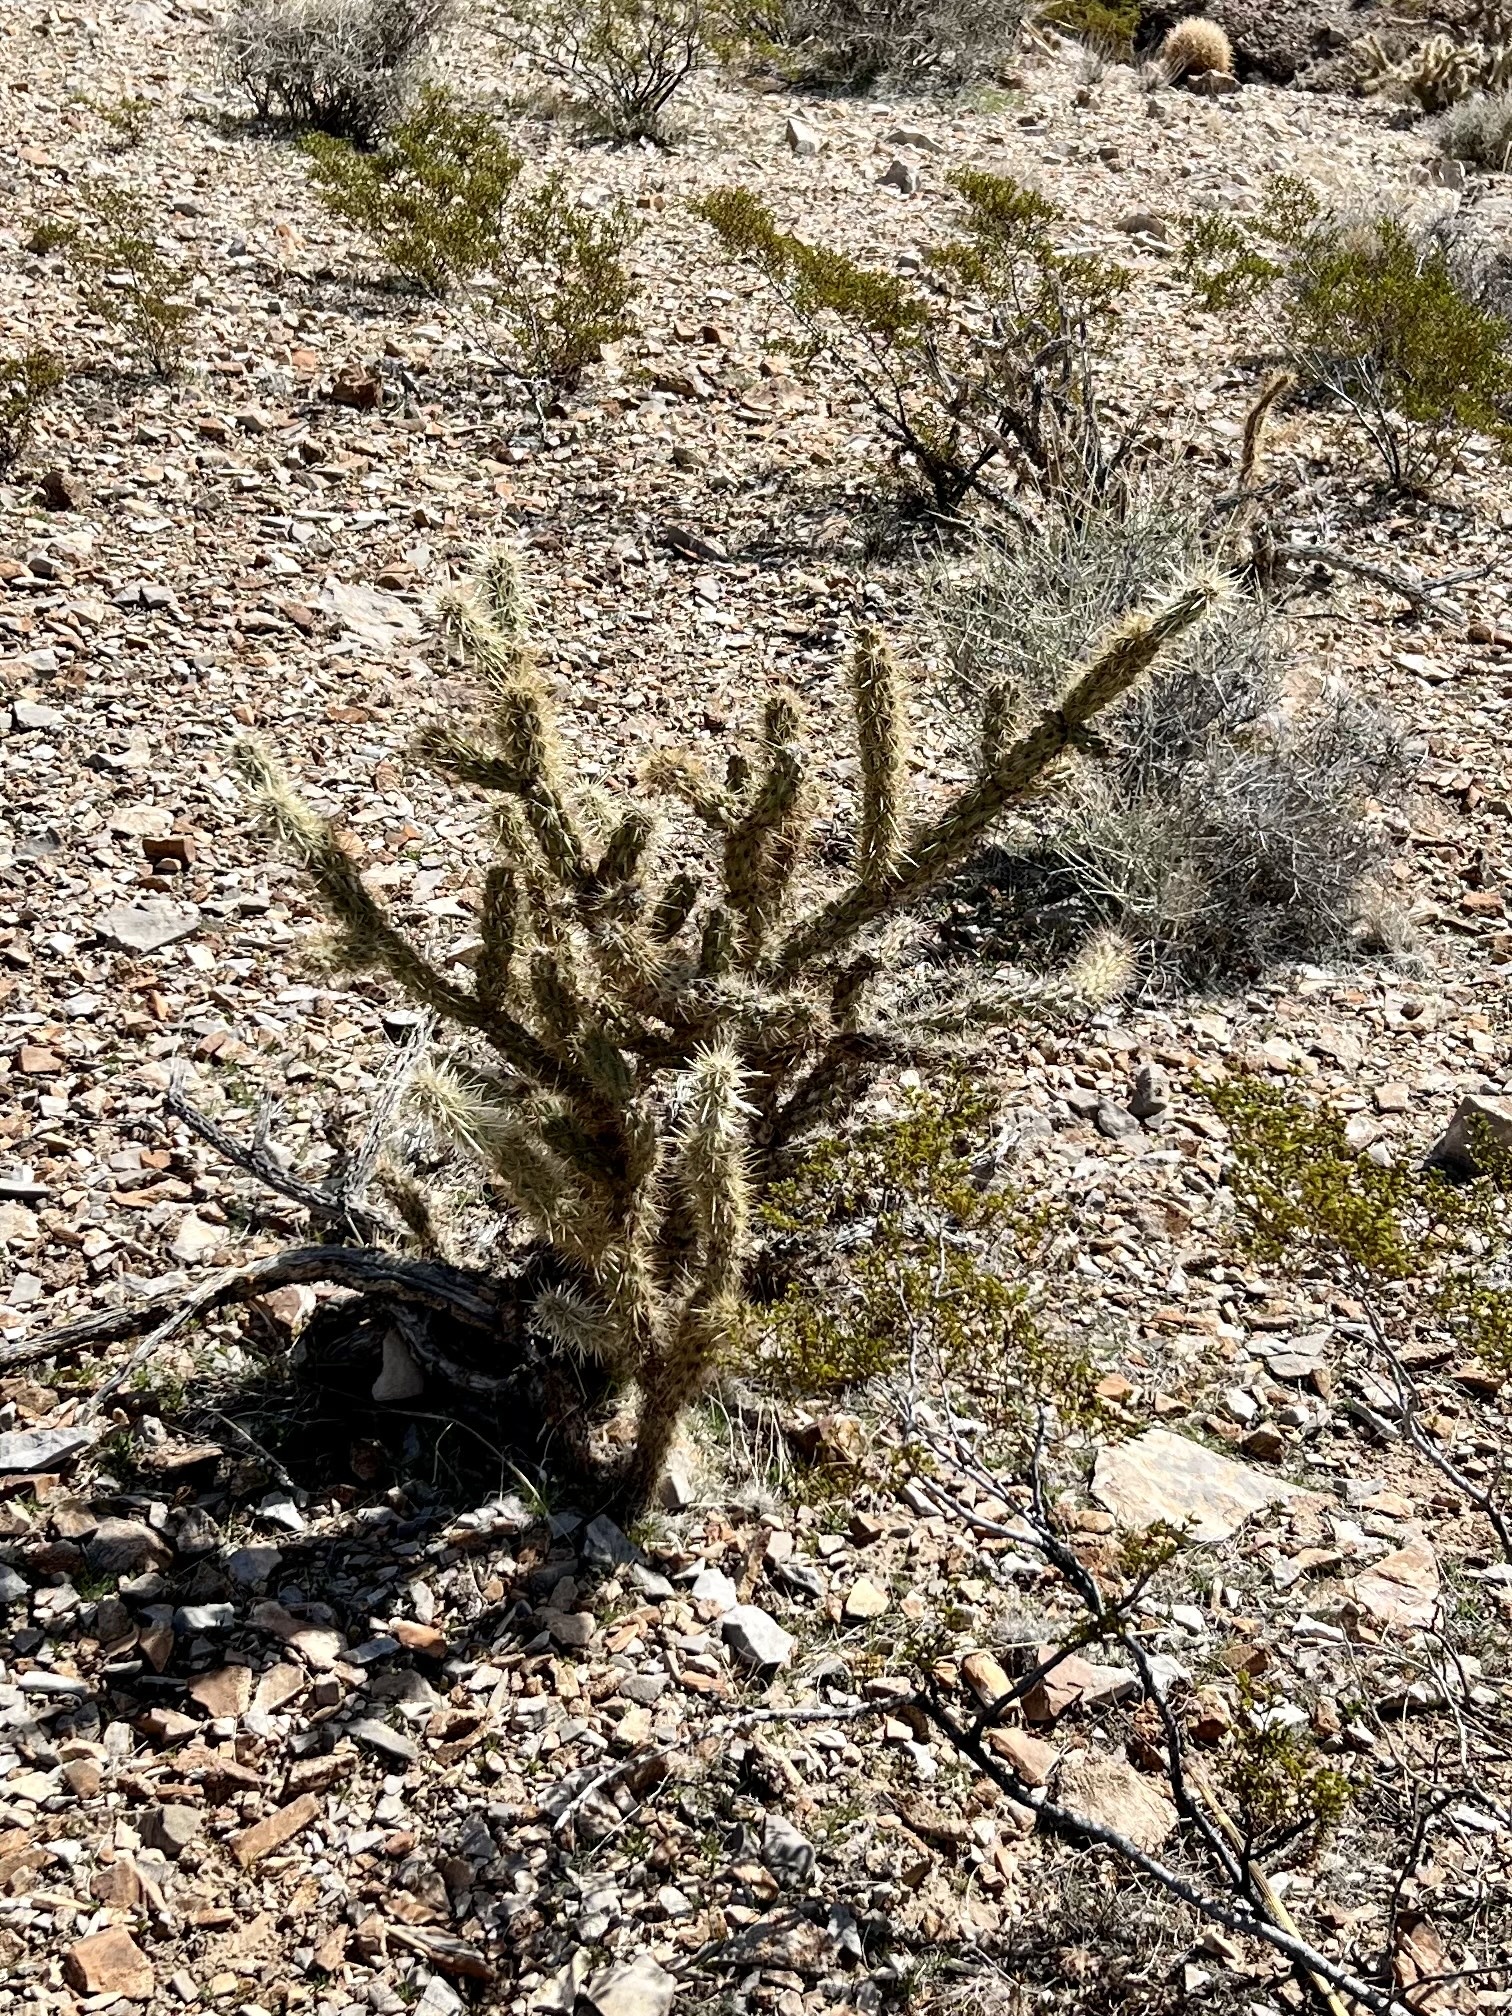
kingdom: Plantae
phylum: Tracheophyta
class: Magnoliopsida
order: Caryophyllales
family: Cactaceae
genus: Cylindropuntia
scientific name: Cylindropuntia acanthocarpa
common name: Buckhorn cholla
